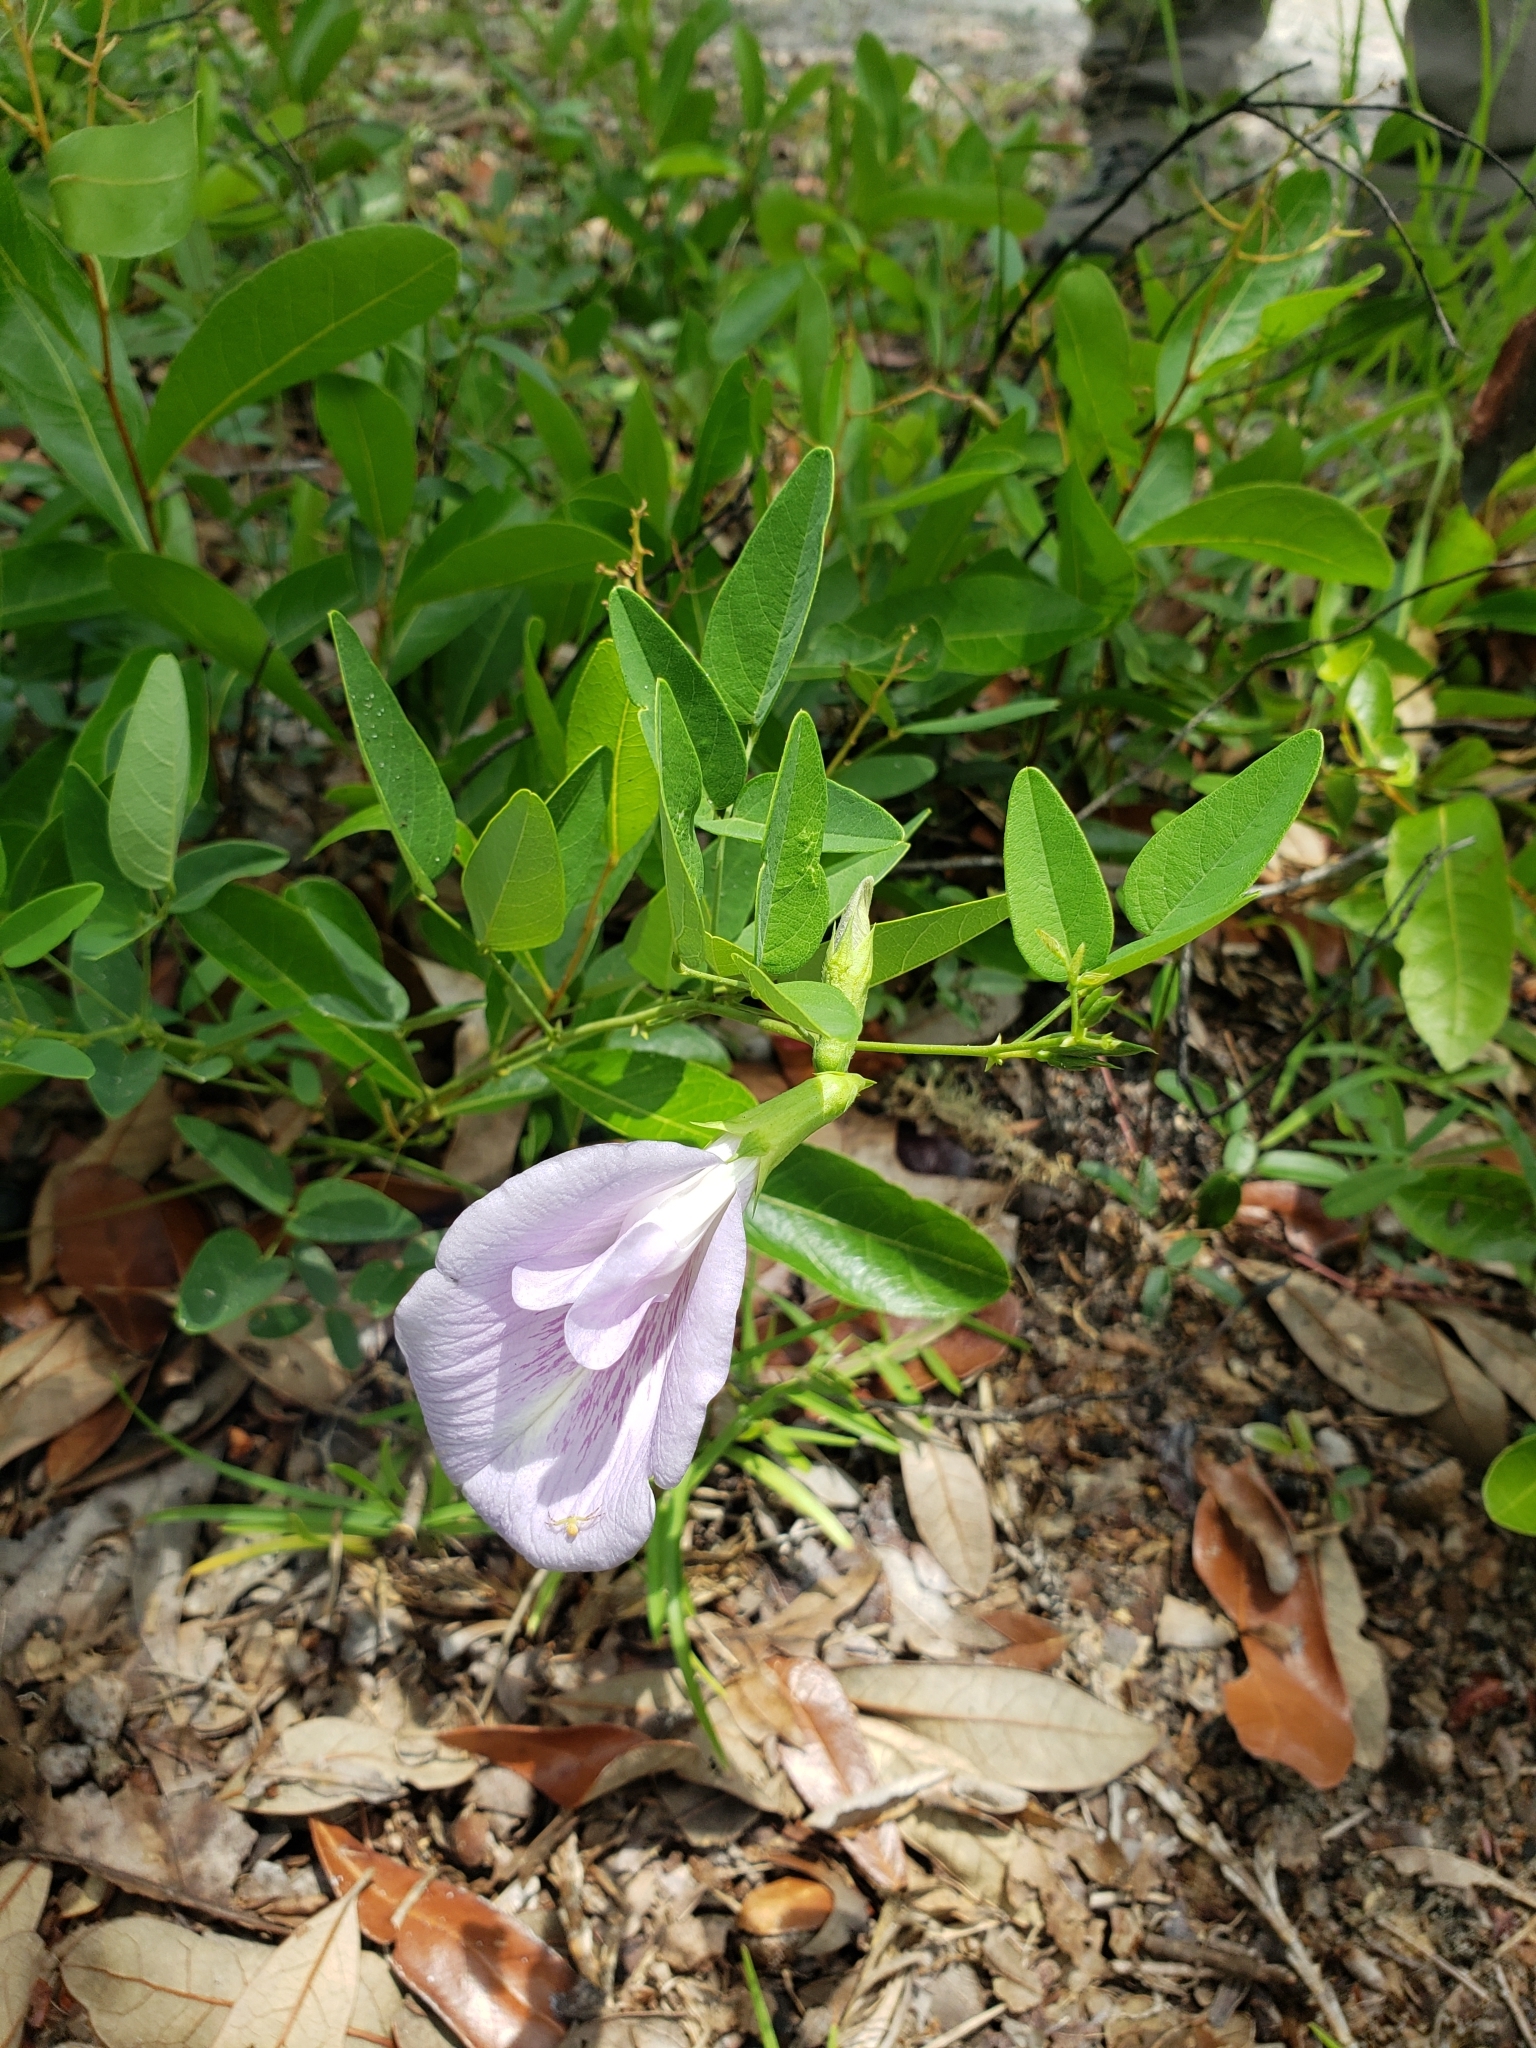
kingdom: Plantae
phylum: Tracheophyta
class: Magnoliopsida
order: Fabales
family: Fabaceae
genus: Clitoria
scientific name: Clitoria mariana
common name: Butterfly-pea
